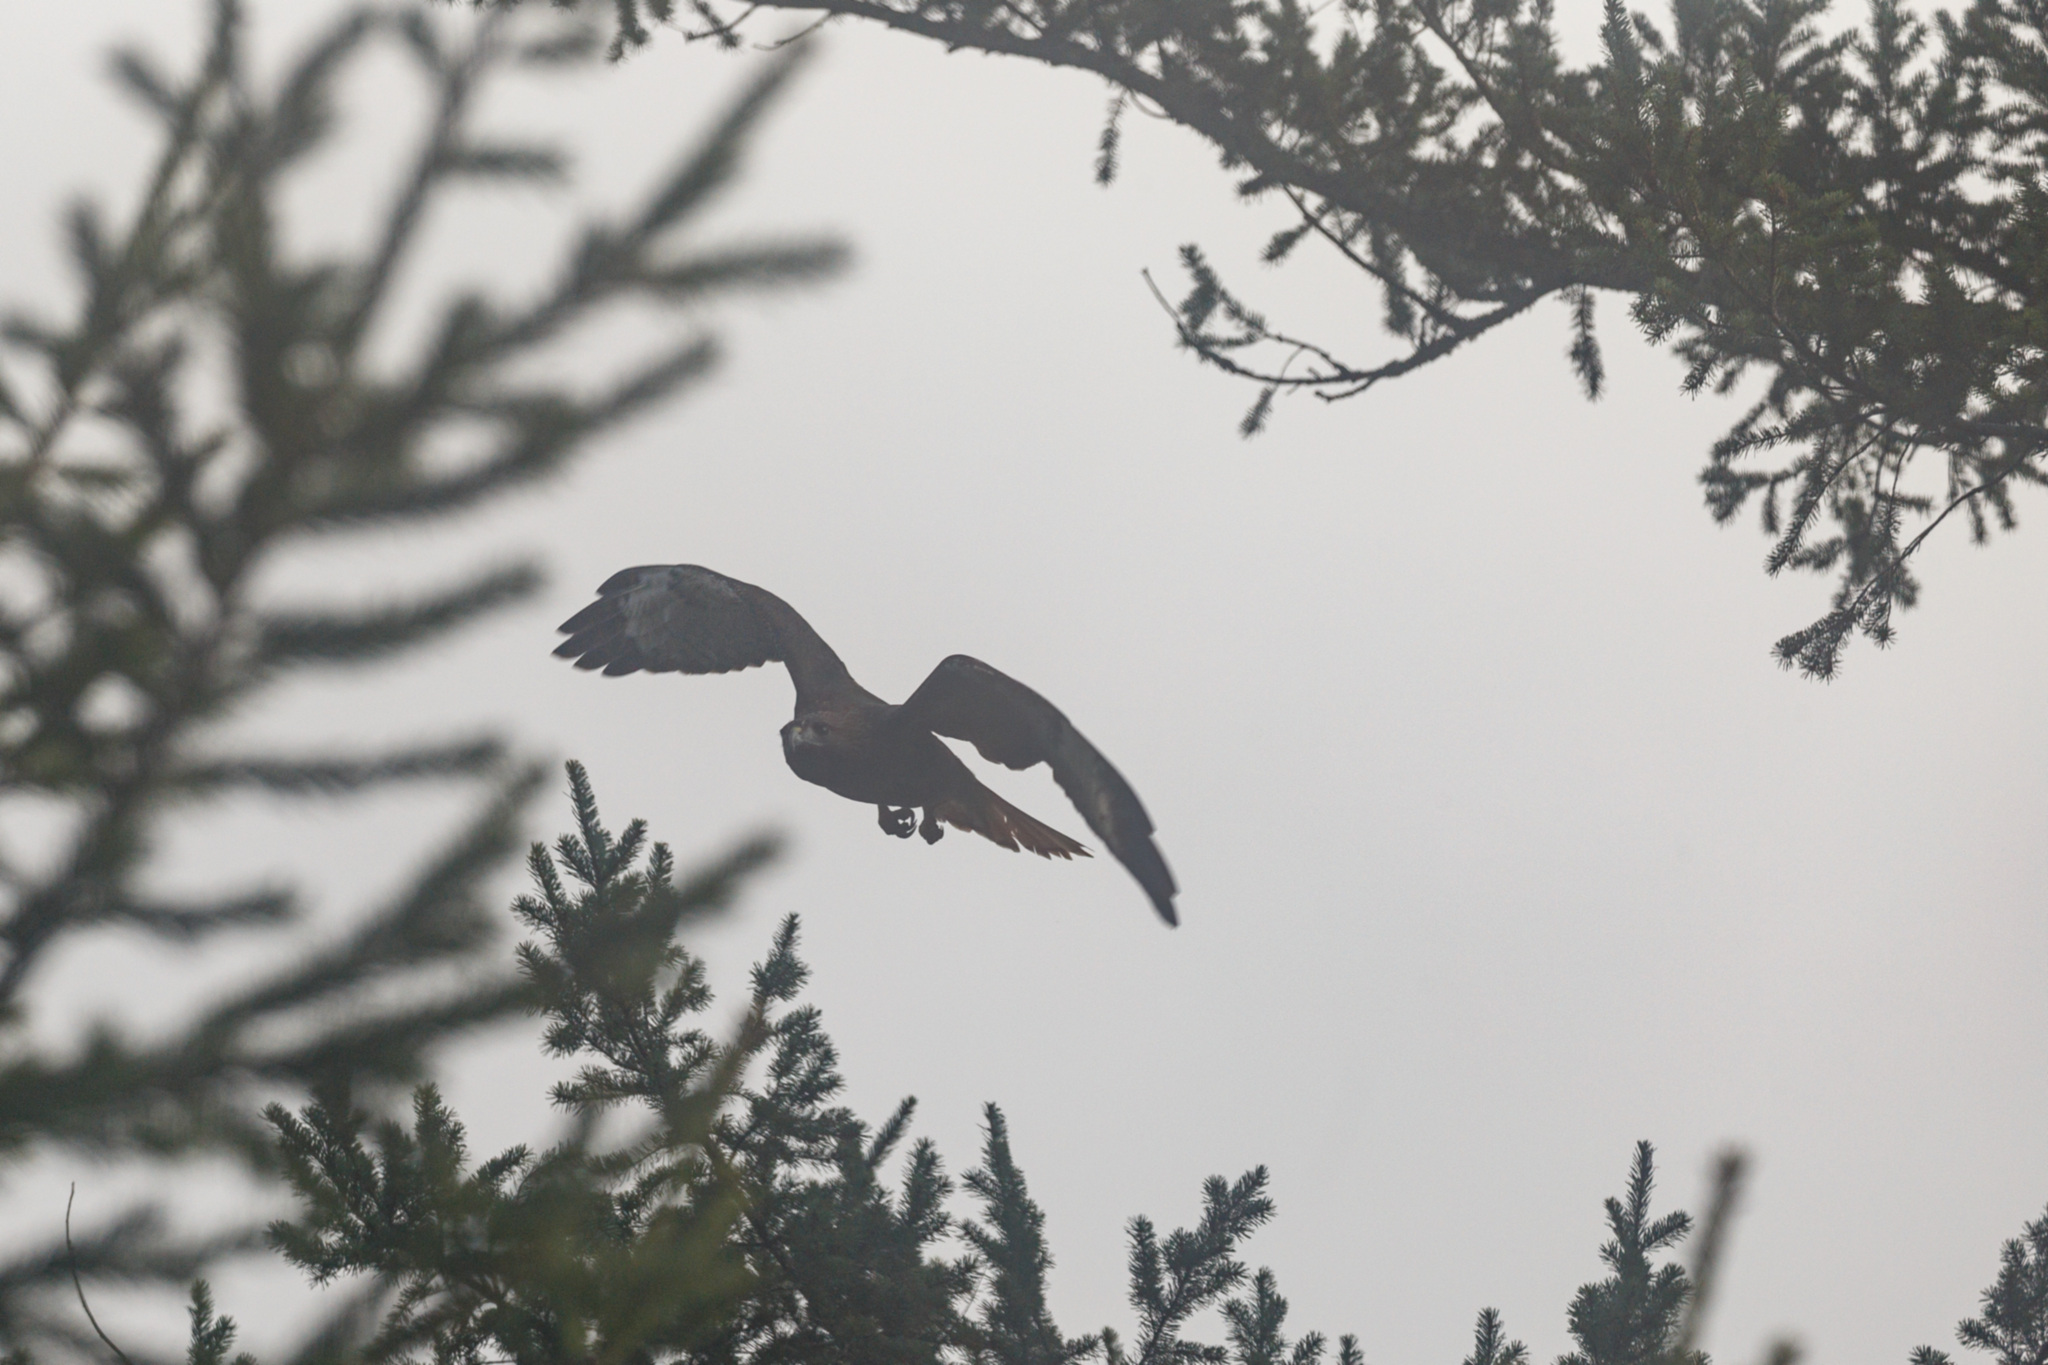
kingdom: Animalia
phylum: Chordata
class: Aves
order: Accipitriformes
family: Accipitridae
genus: Buteo
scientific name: Buteo jamaicensis
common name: Red-tailed hawk
